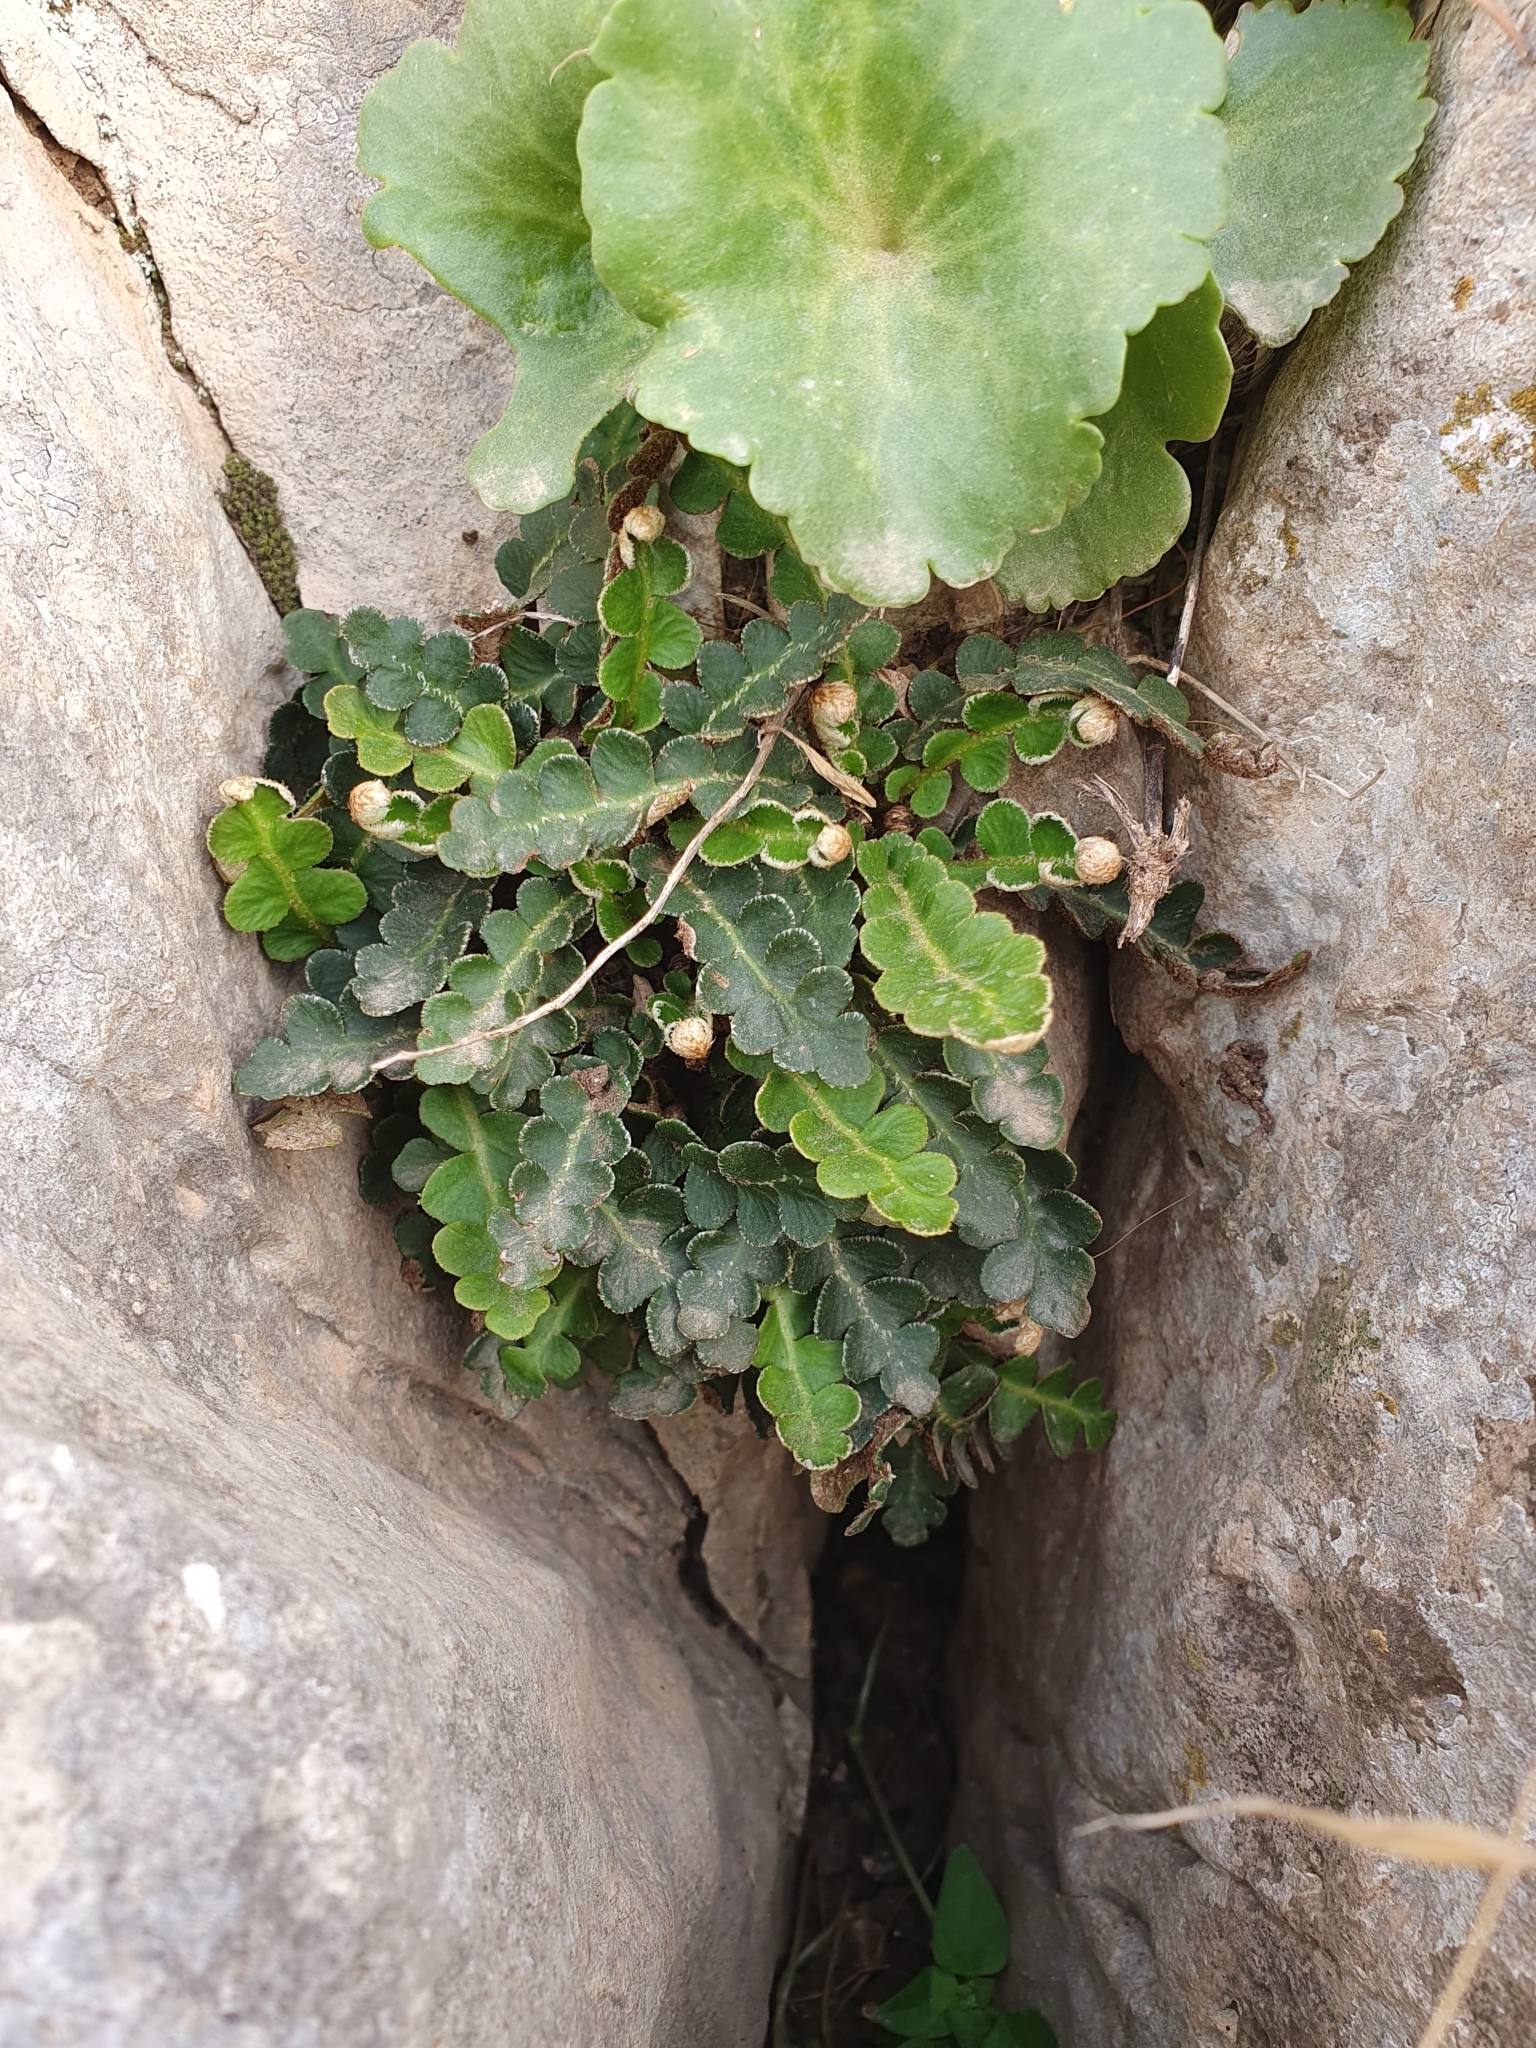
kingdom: Plantae
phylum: Tracheophyta
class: Polypodiopsida
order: Polypodiales
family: Aspleniaceae
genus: Asplenium
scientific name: Asplenium ceterach
